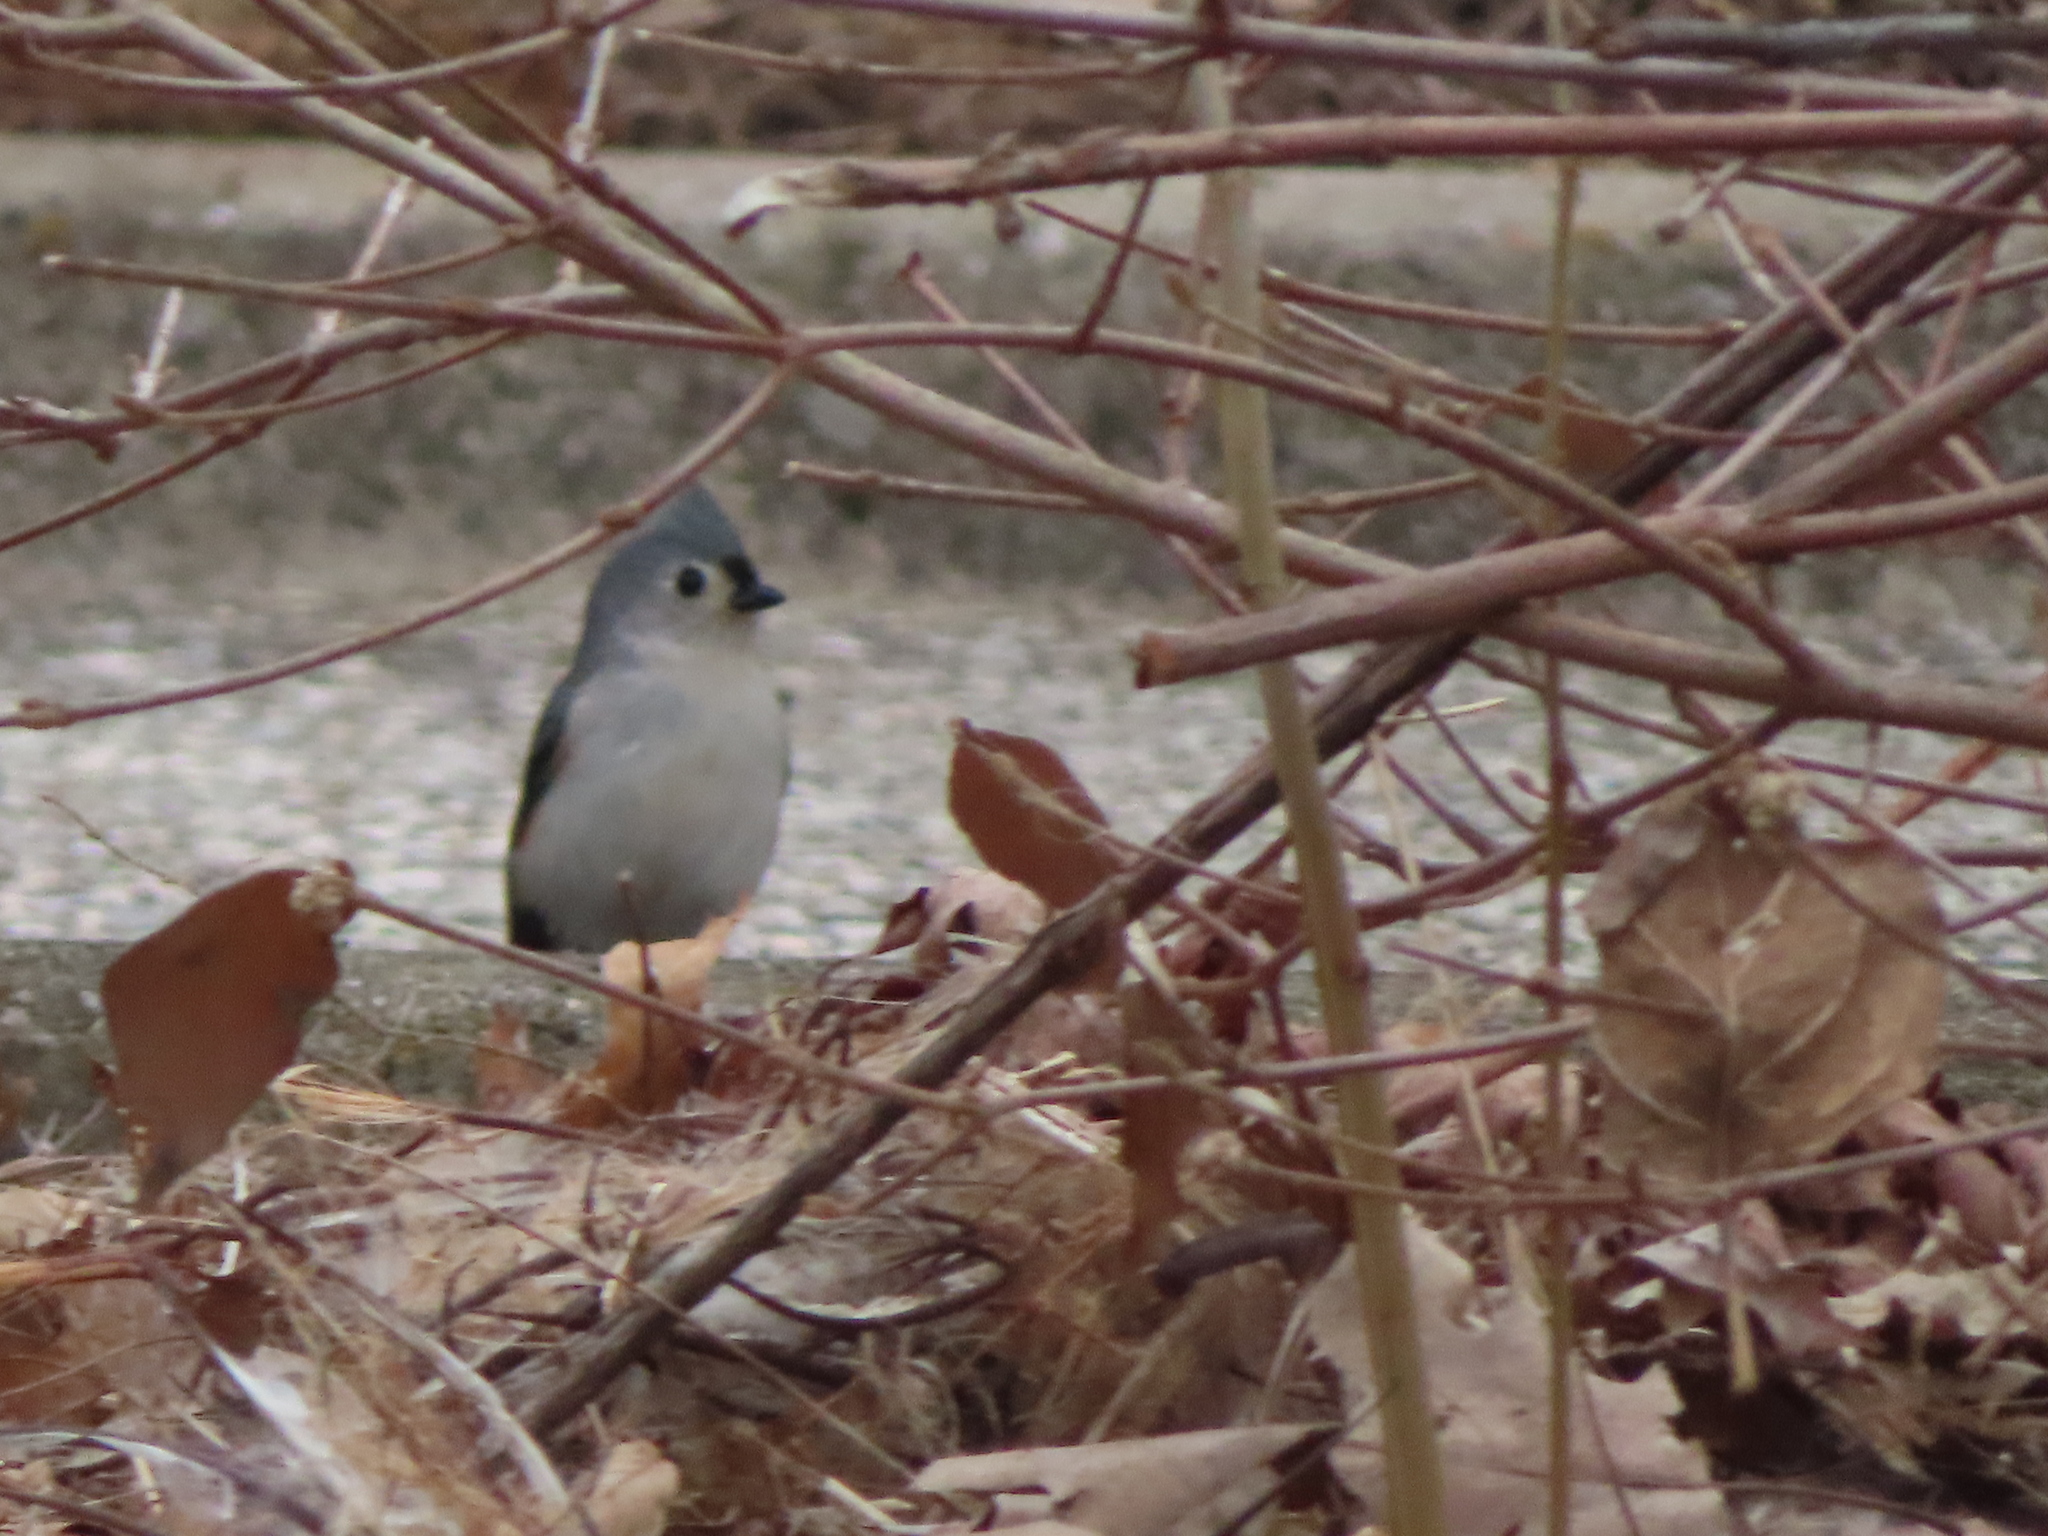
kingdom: Animalia
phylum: Chordata
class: Aves
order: Passeriformes
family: Paridae
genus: Baeolophus
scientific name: Baeolophus bicolor
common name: Tufted titmouse
